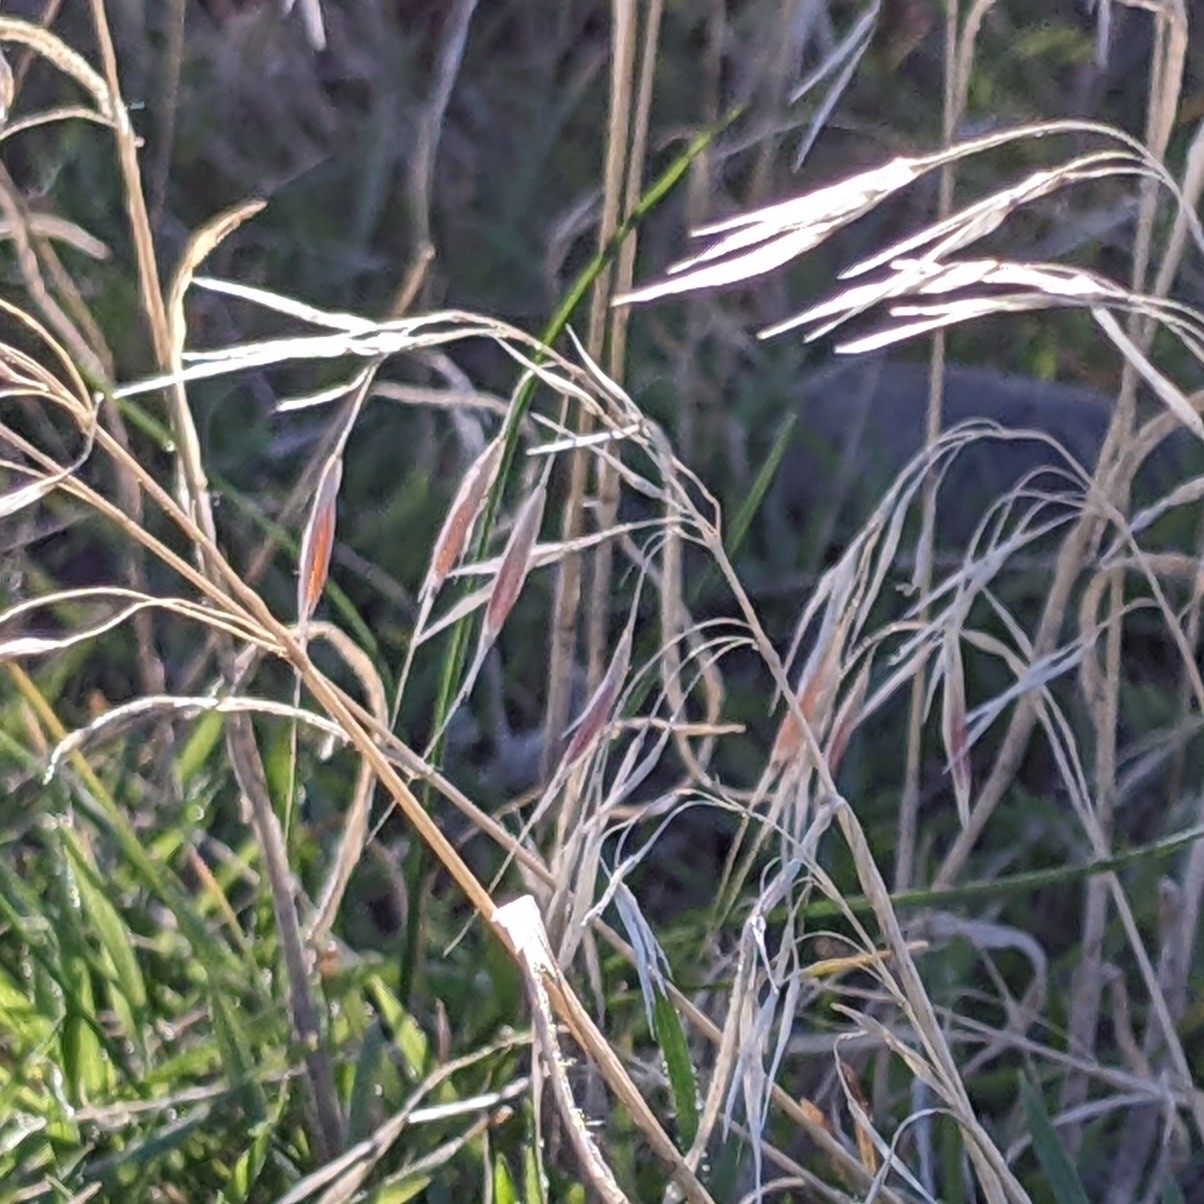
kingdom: Plantae
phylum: Tracheophyta
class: Liliopsida
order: Poales
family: Poaceae
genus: Bromus
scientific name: Bromus tectorum
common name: Cheatgrass
